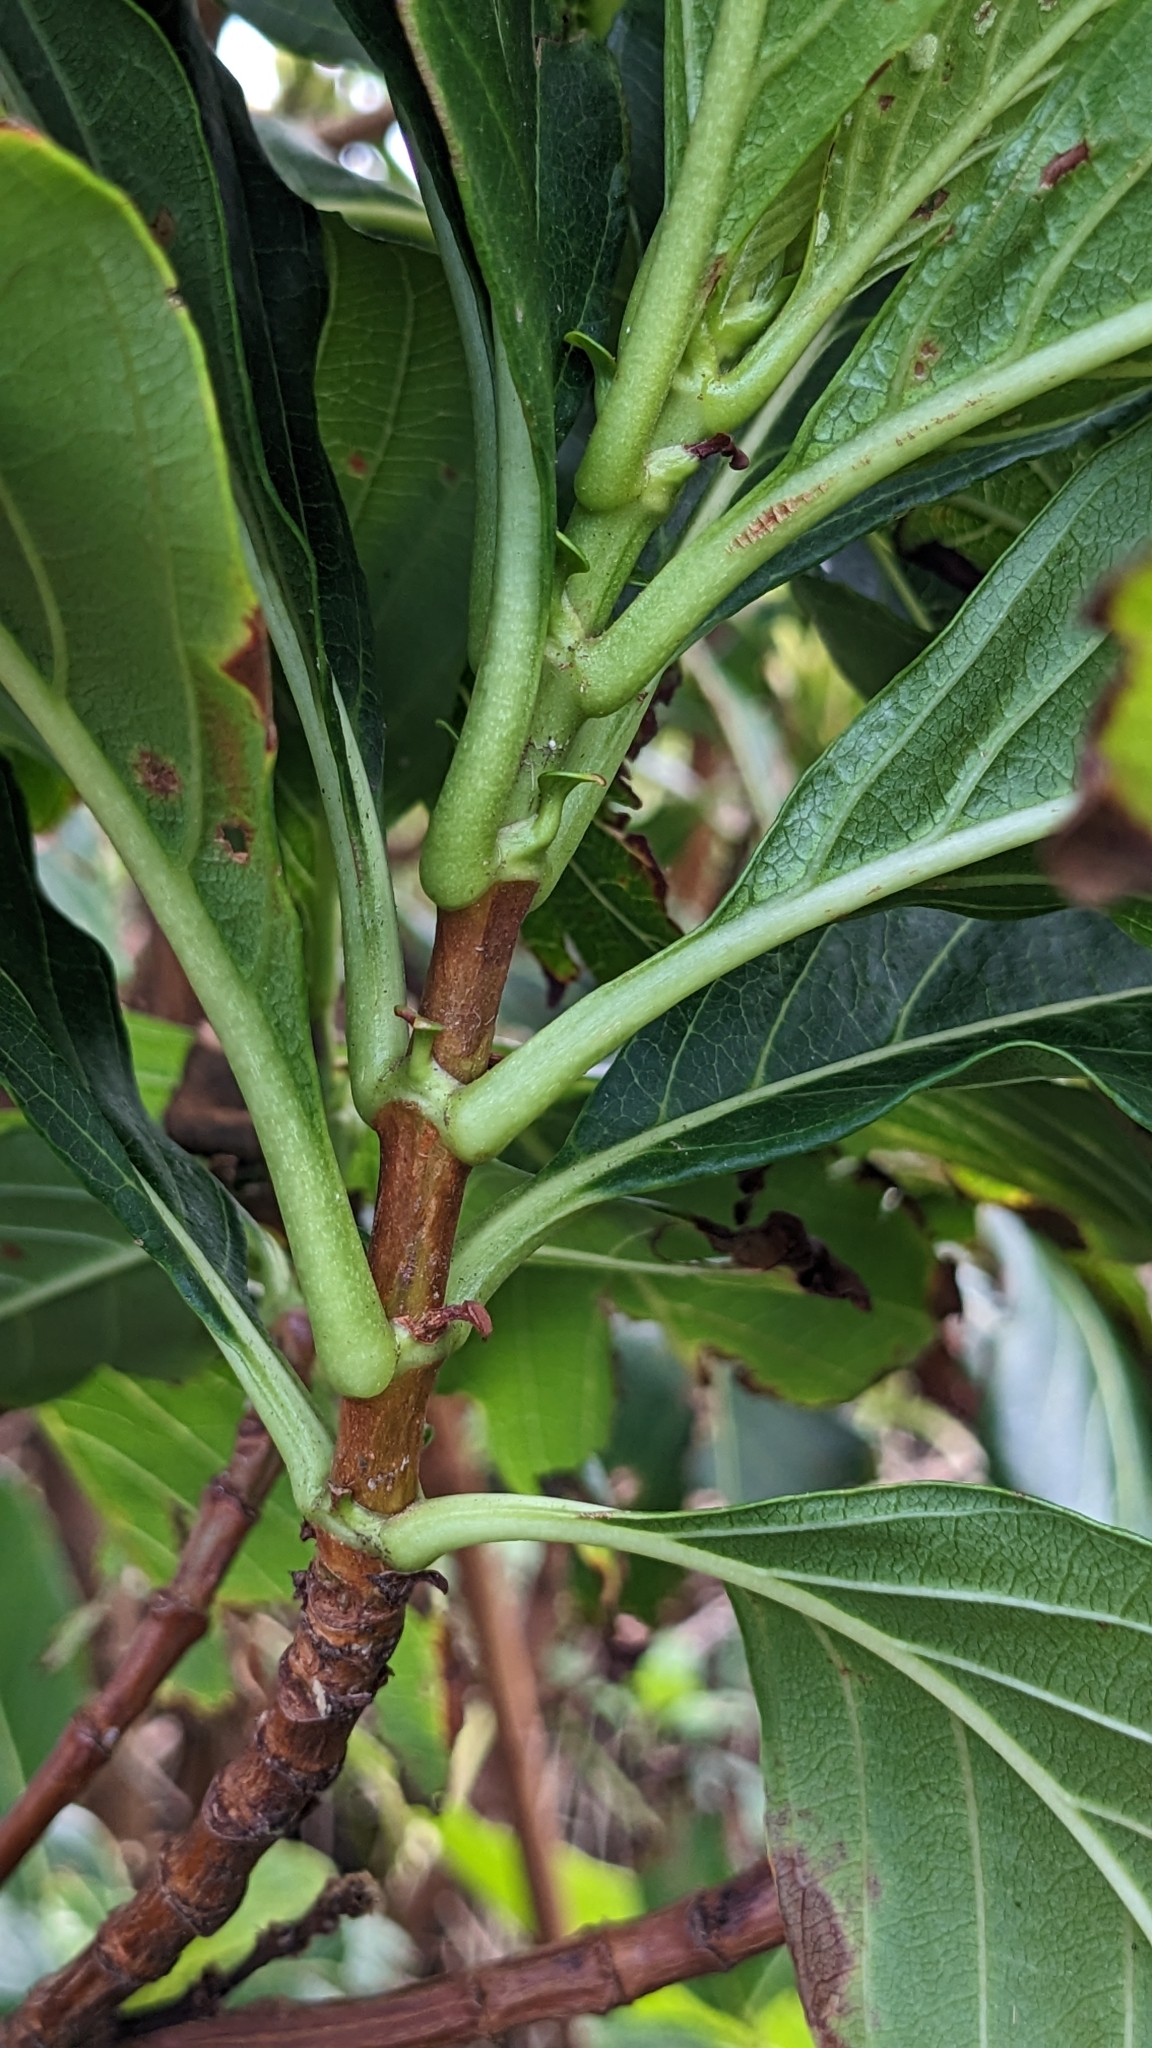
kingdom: Plantae
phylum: Tracheophyta
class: Magnoliopsida
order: Gentianales
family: Rubiaceae
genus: Wendlandia
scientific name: Wendlandia luzoniensis
